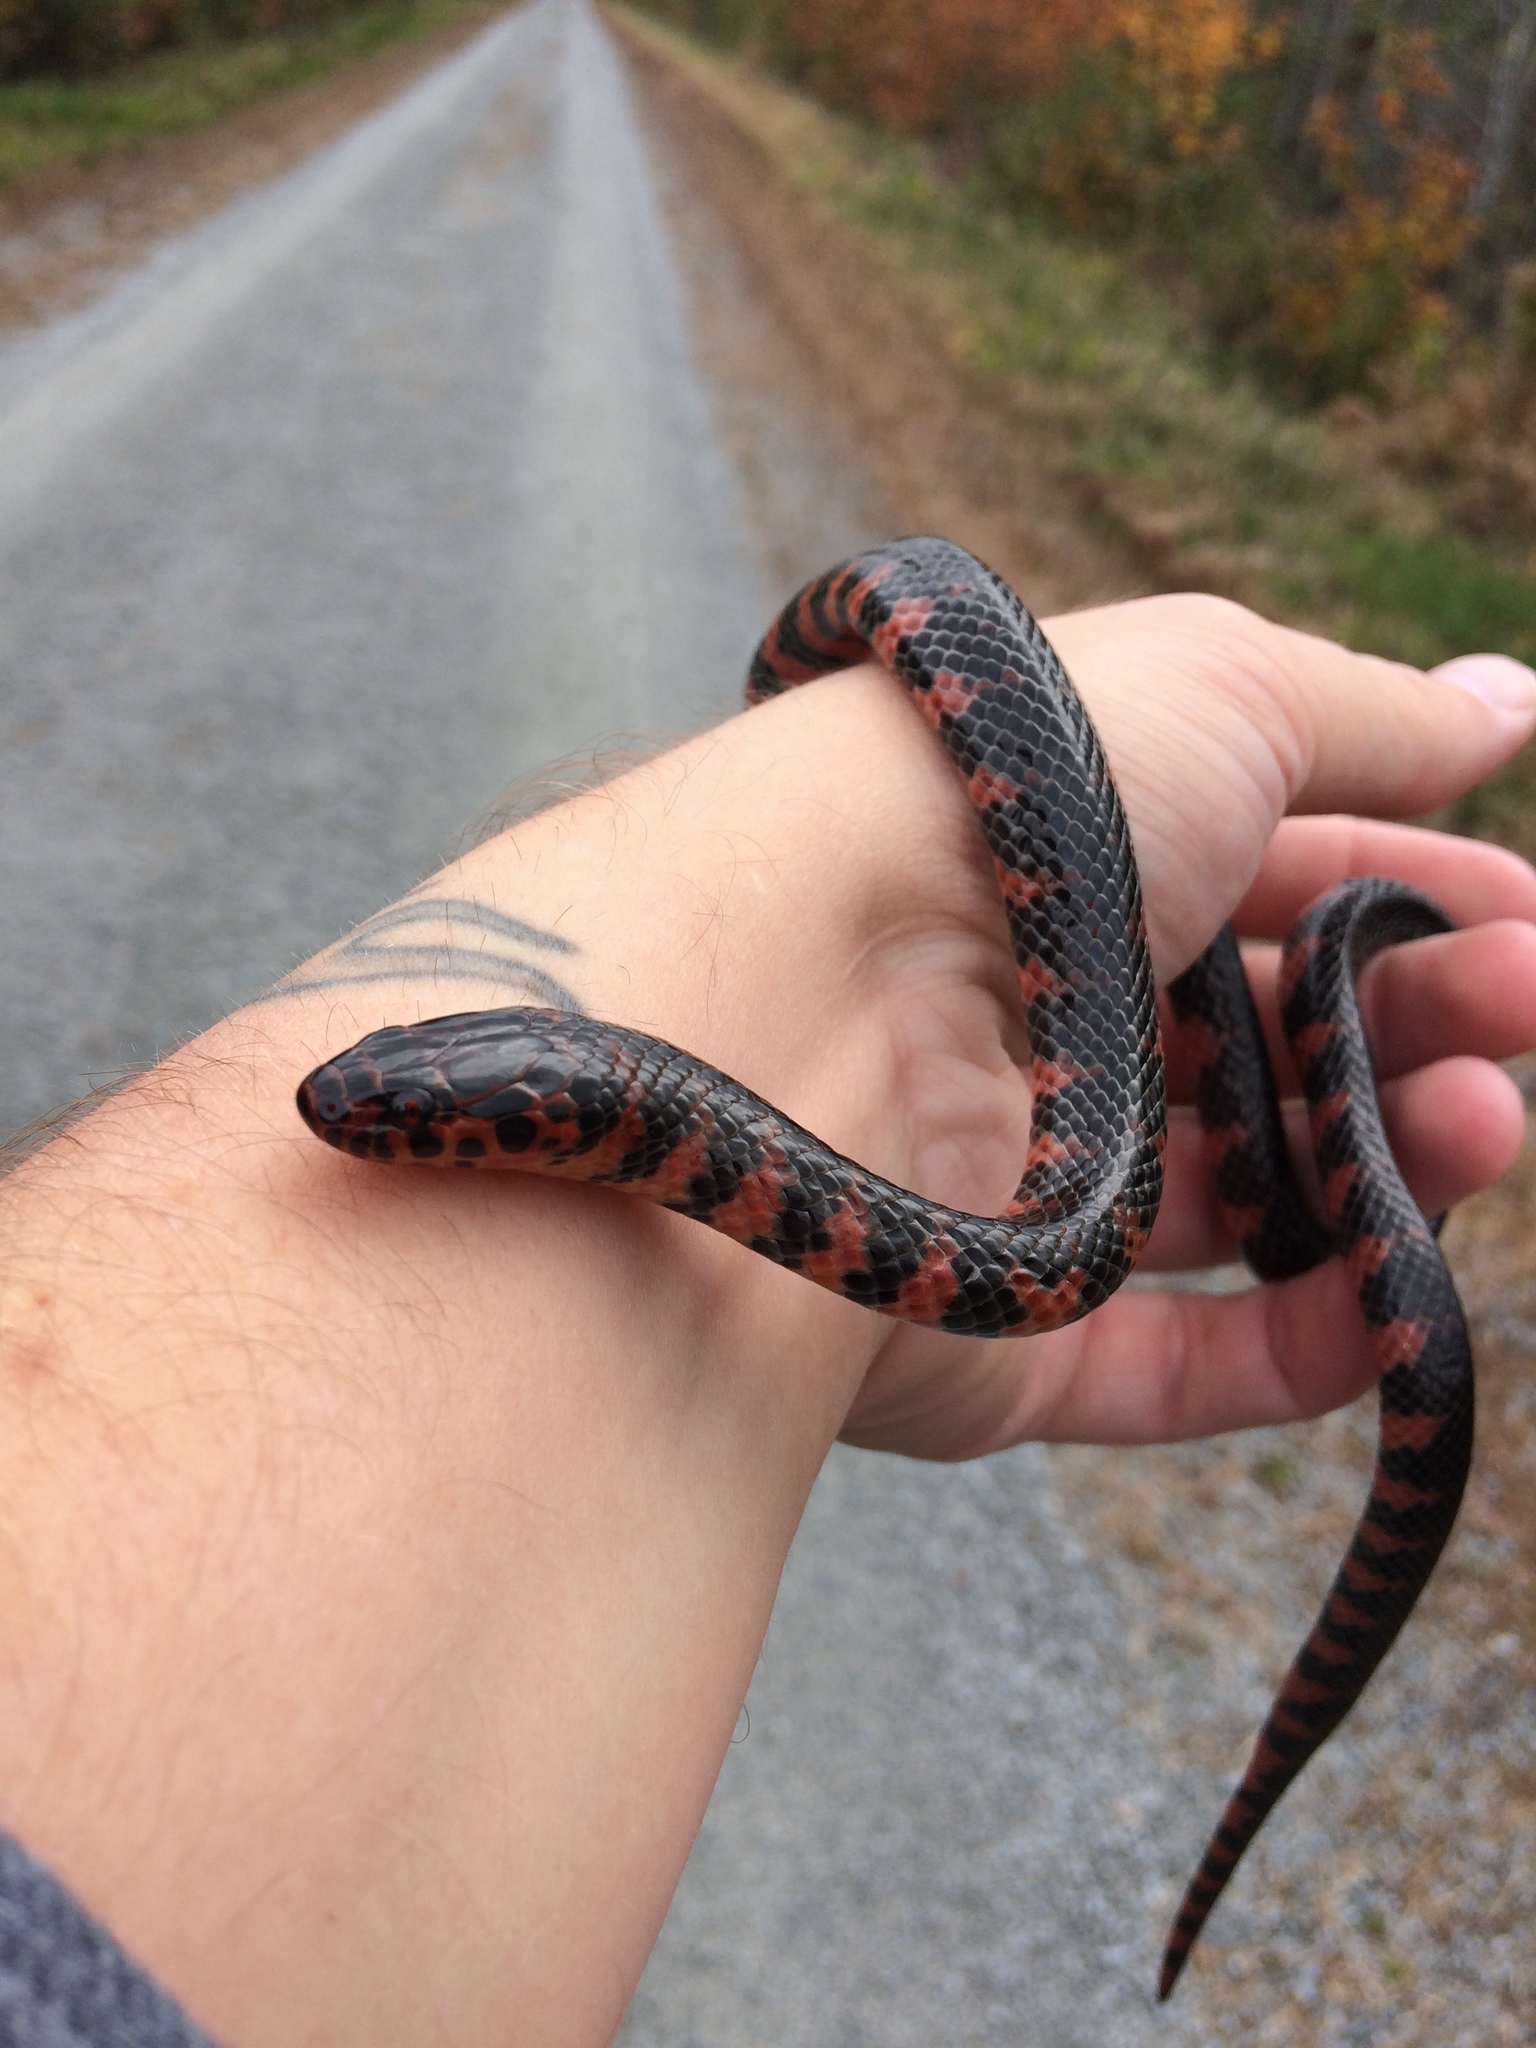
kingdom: Animalia
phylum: Chordata
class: Squamata
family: Colubridae
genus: Farancia
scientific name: Farancia abacura
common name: Mud snake
